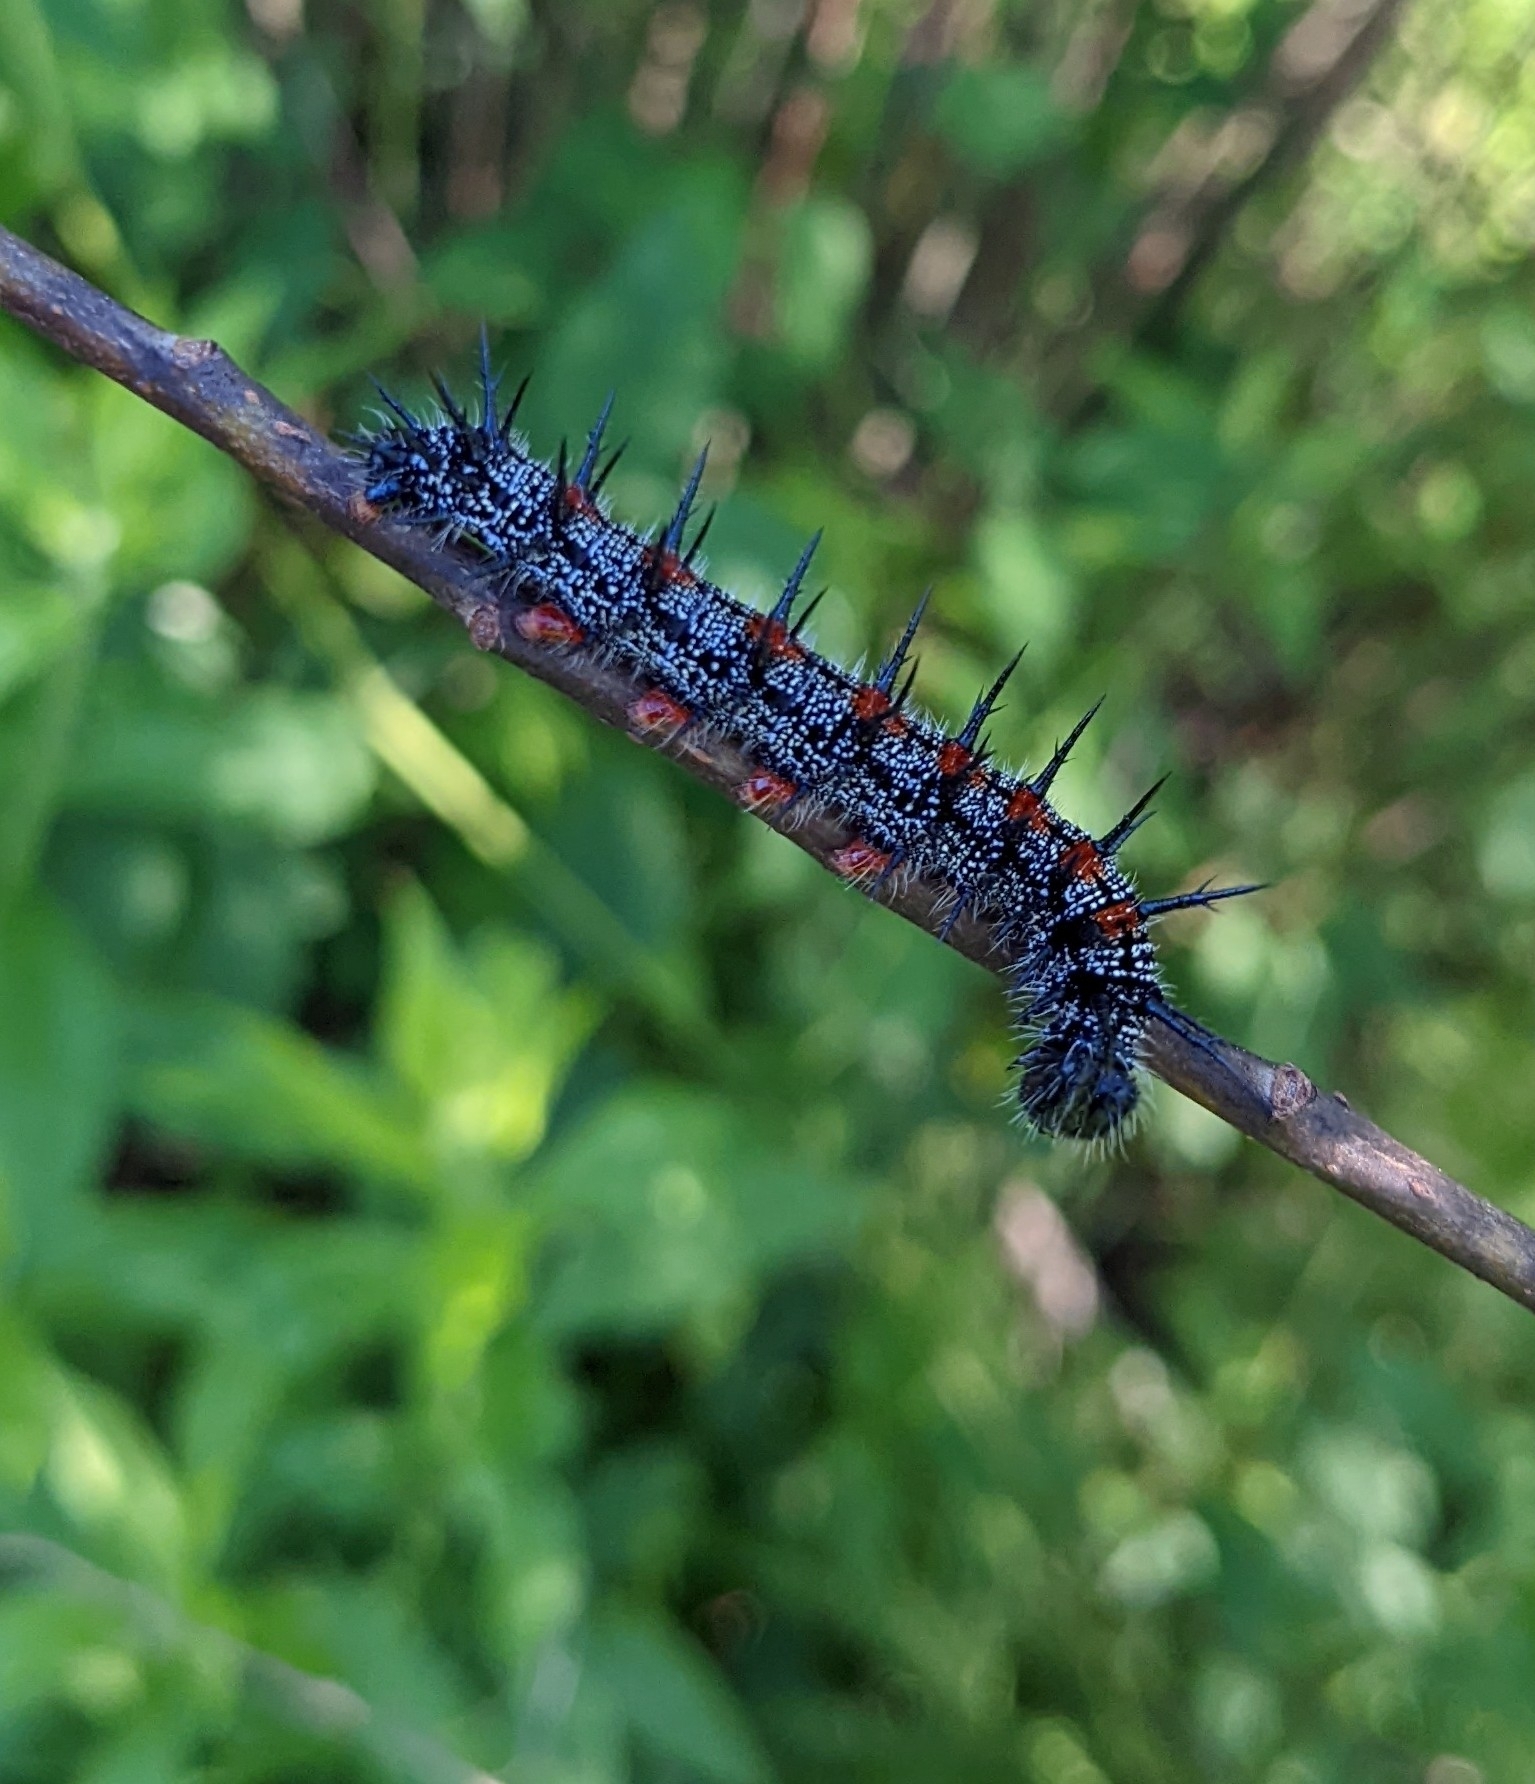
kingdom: Animalia
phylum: Arthropoda
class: Insecta
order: Lepidoptera
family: Nymphalidae
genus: Nymphalis
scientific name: Nymphalis antiopa
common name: Camberwell beauty
